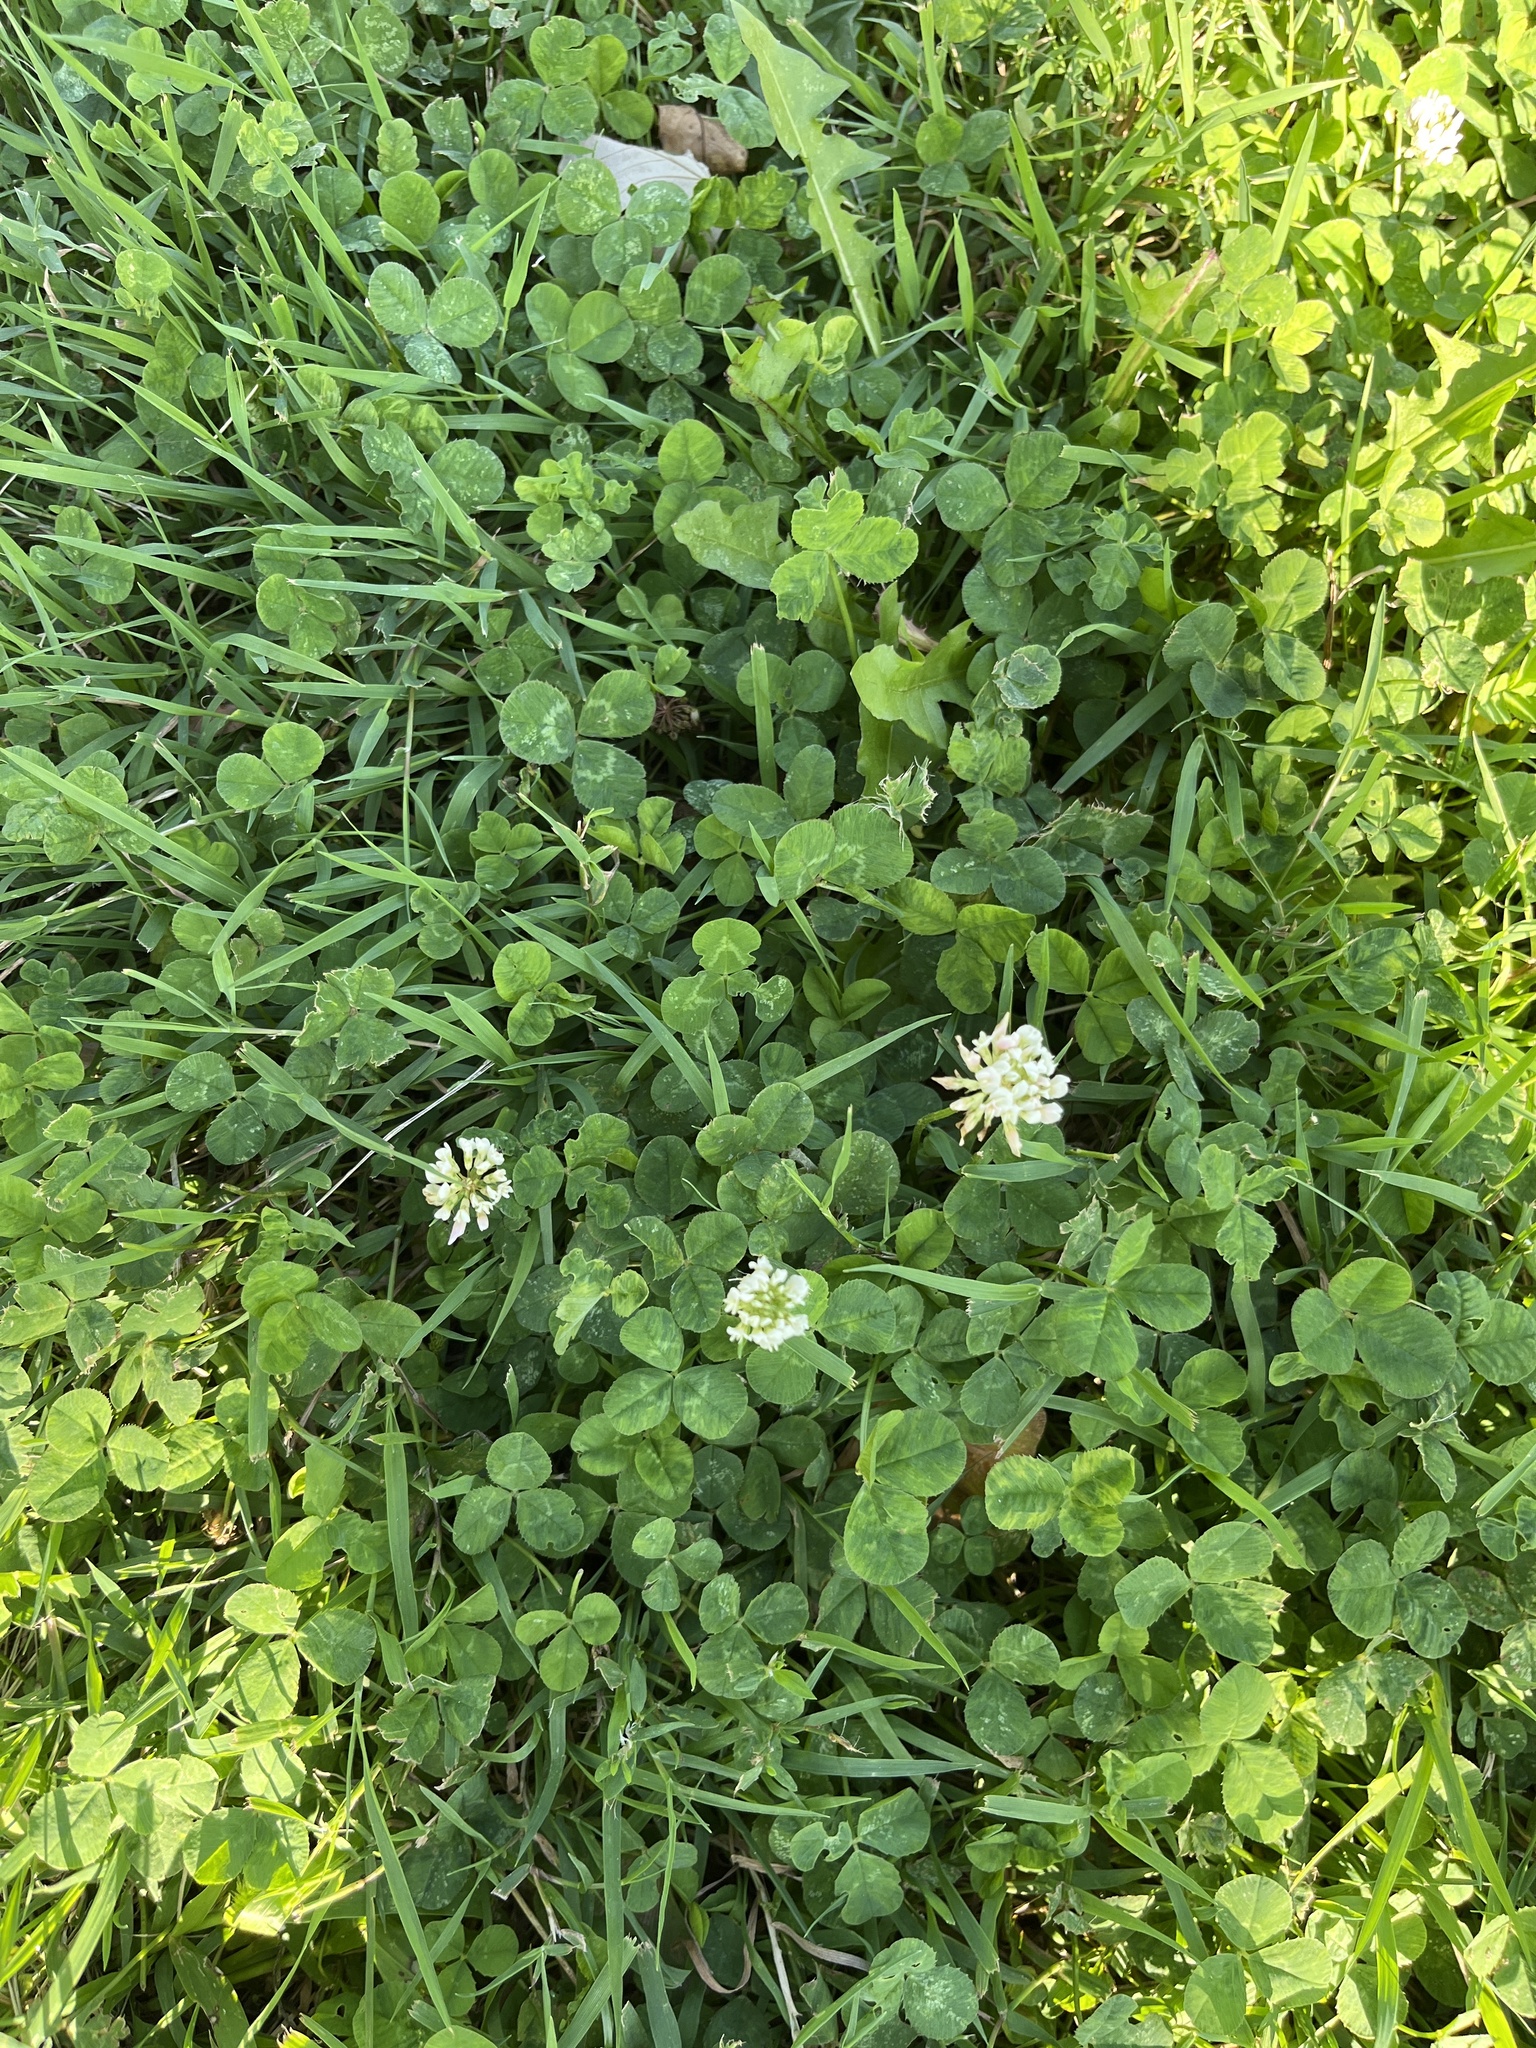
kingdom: Plantae
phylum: Tracheophyta
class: Magnoliopsida
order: Fabales
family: Fabaceae
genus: Trifolium
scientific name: Trifolium repens
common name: White clover
